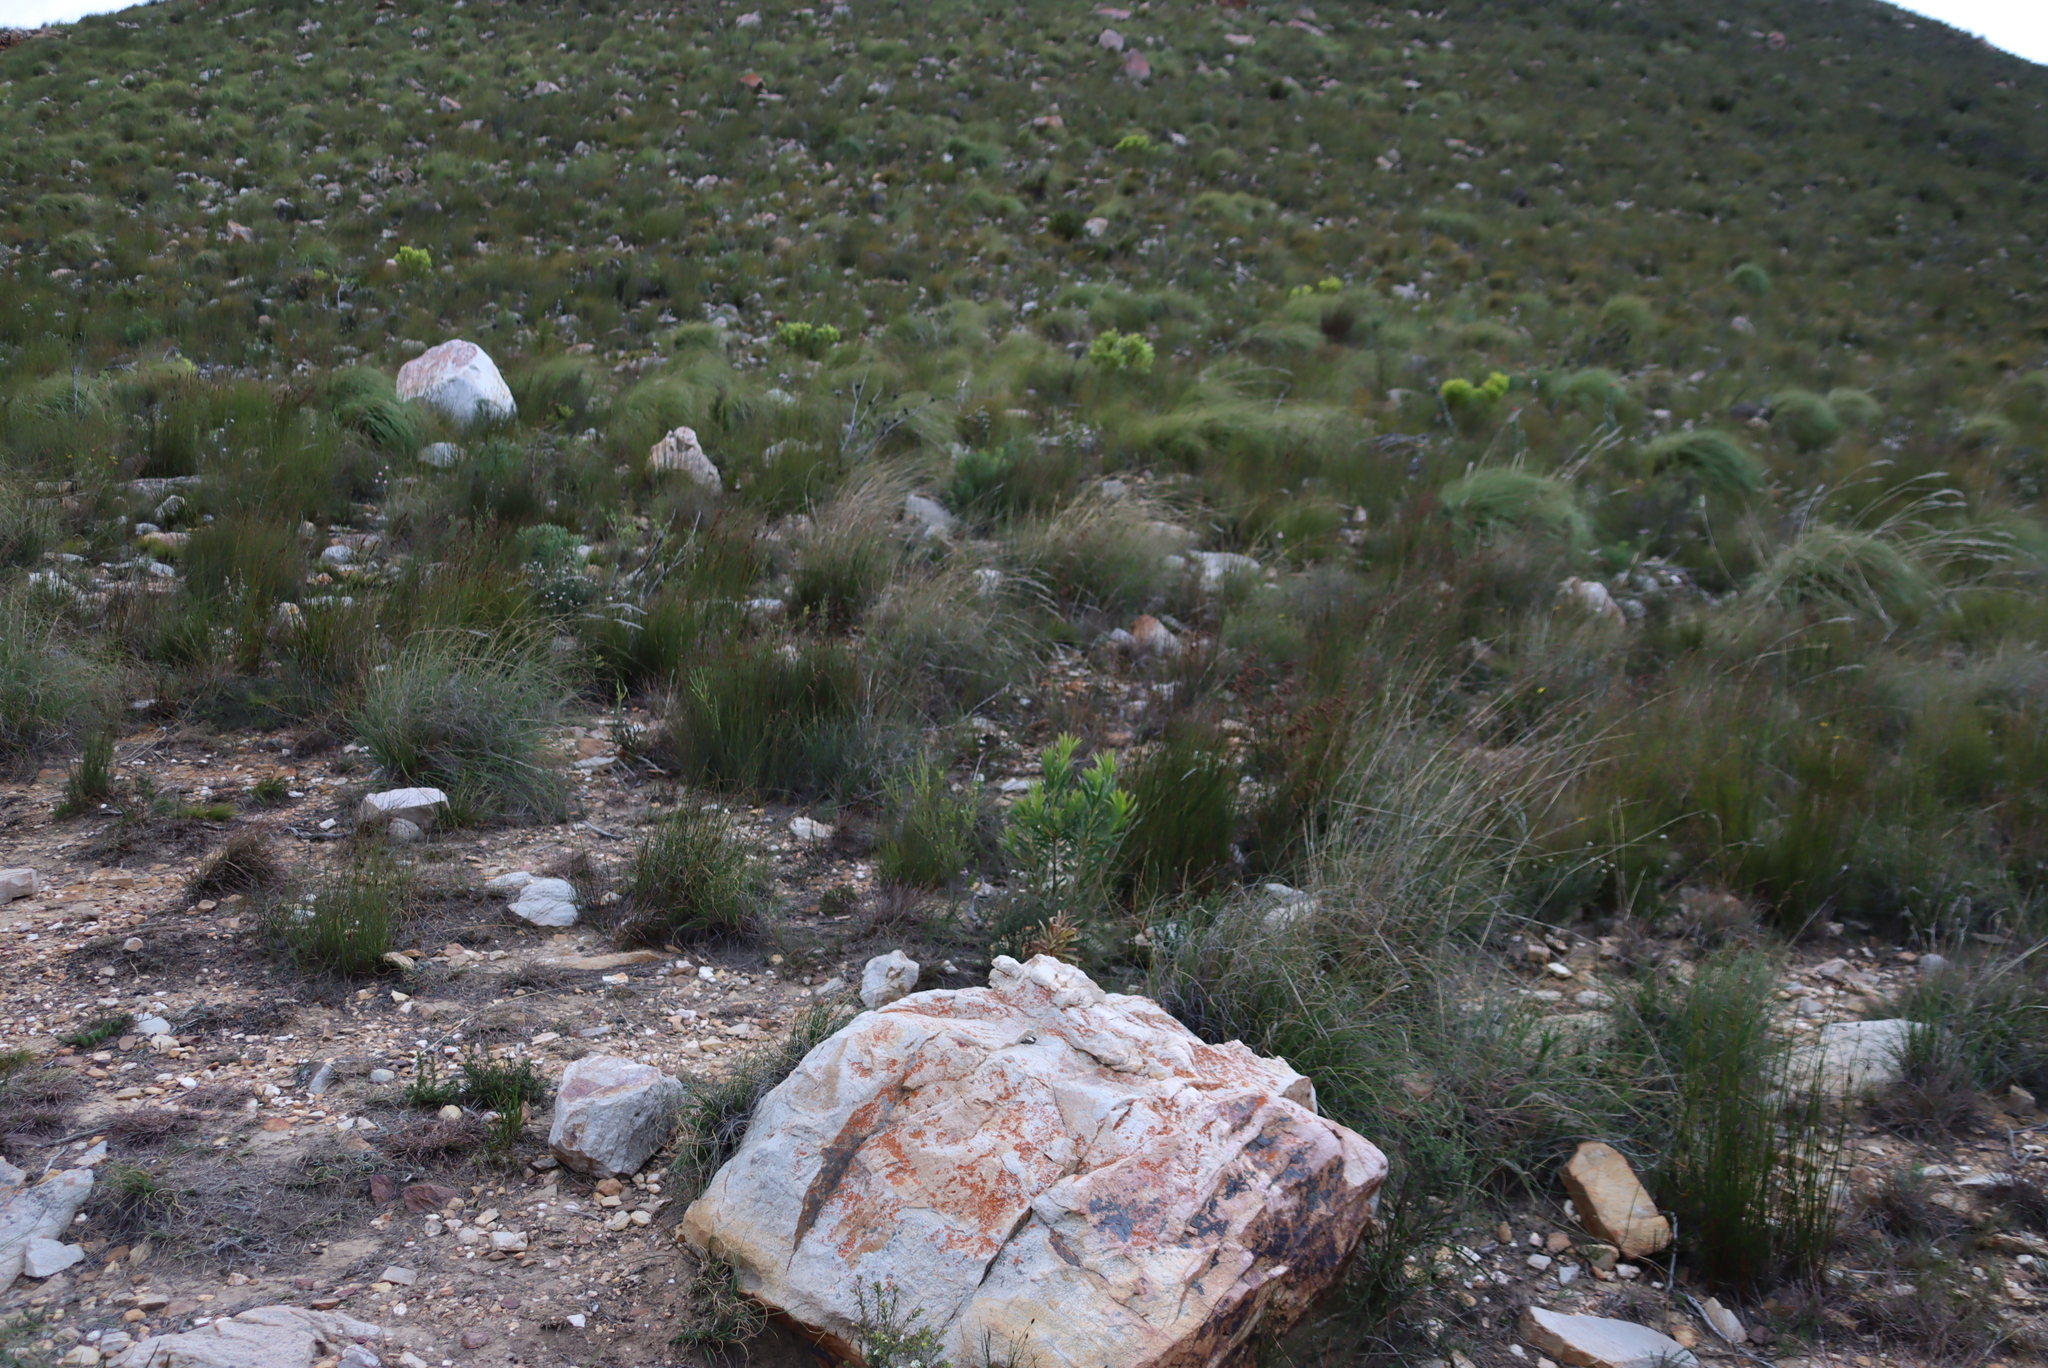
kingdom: Plantae
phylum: Tracheophyta
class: Magnoliopsida
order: Proteales
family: Proteaceae
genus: Protea
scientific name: Protea repens
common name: Sugarbush
